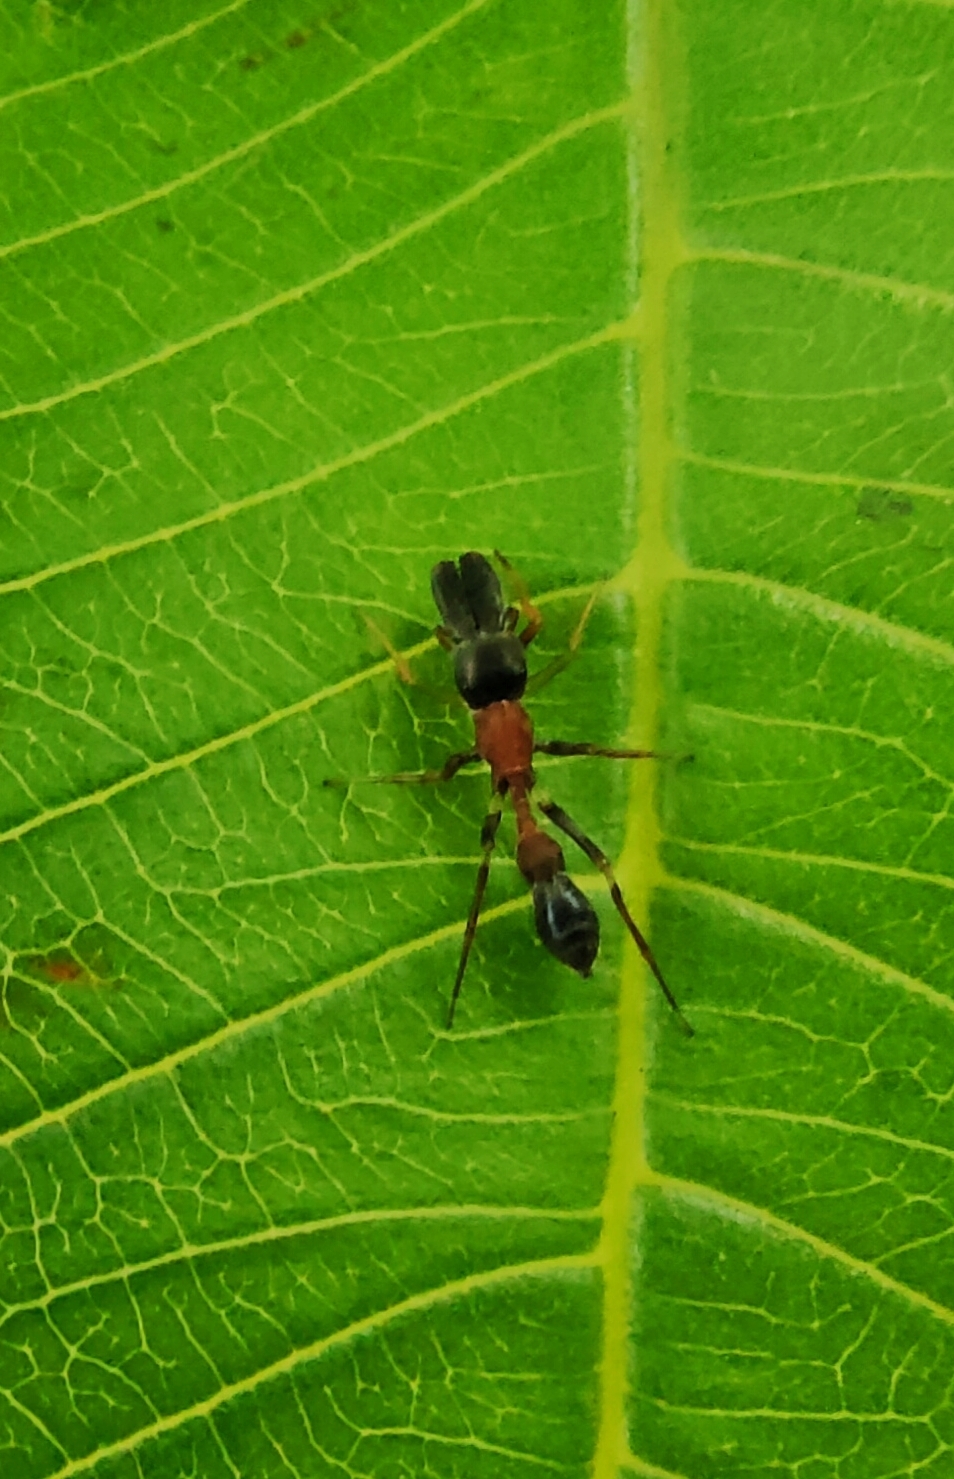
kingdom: Animalia
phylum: Arthropoda
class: Arachnida
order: Araneae
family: Salticidae
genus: Myrmarachne
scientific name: Myrmarachne melanocephala
